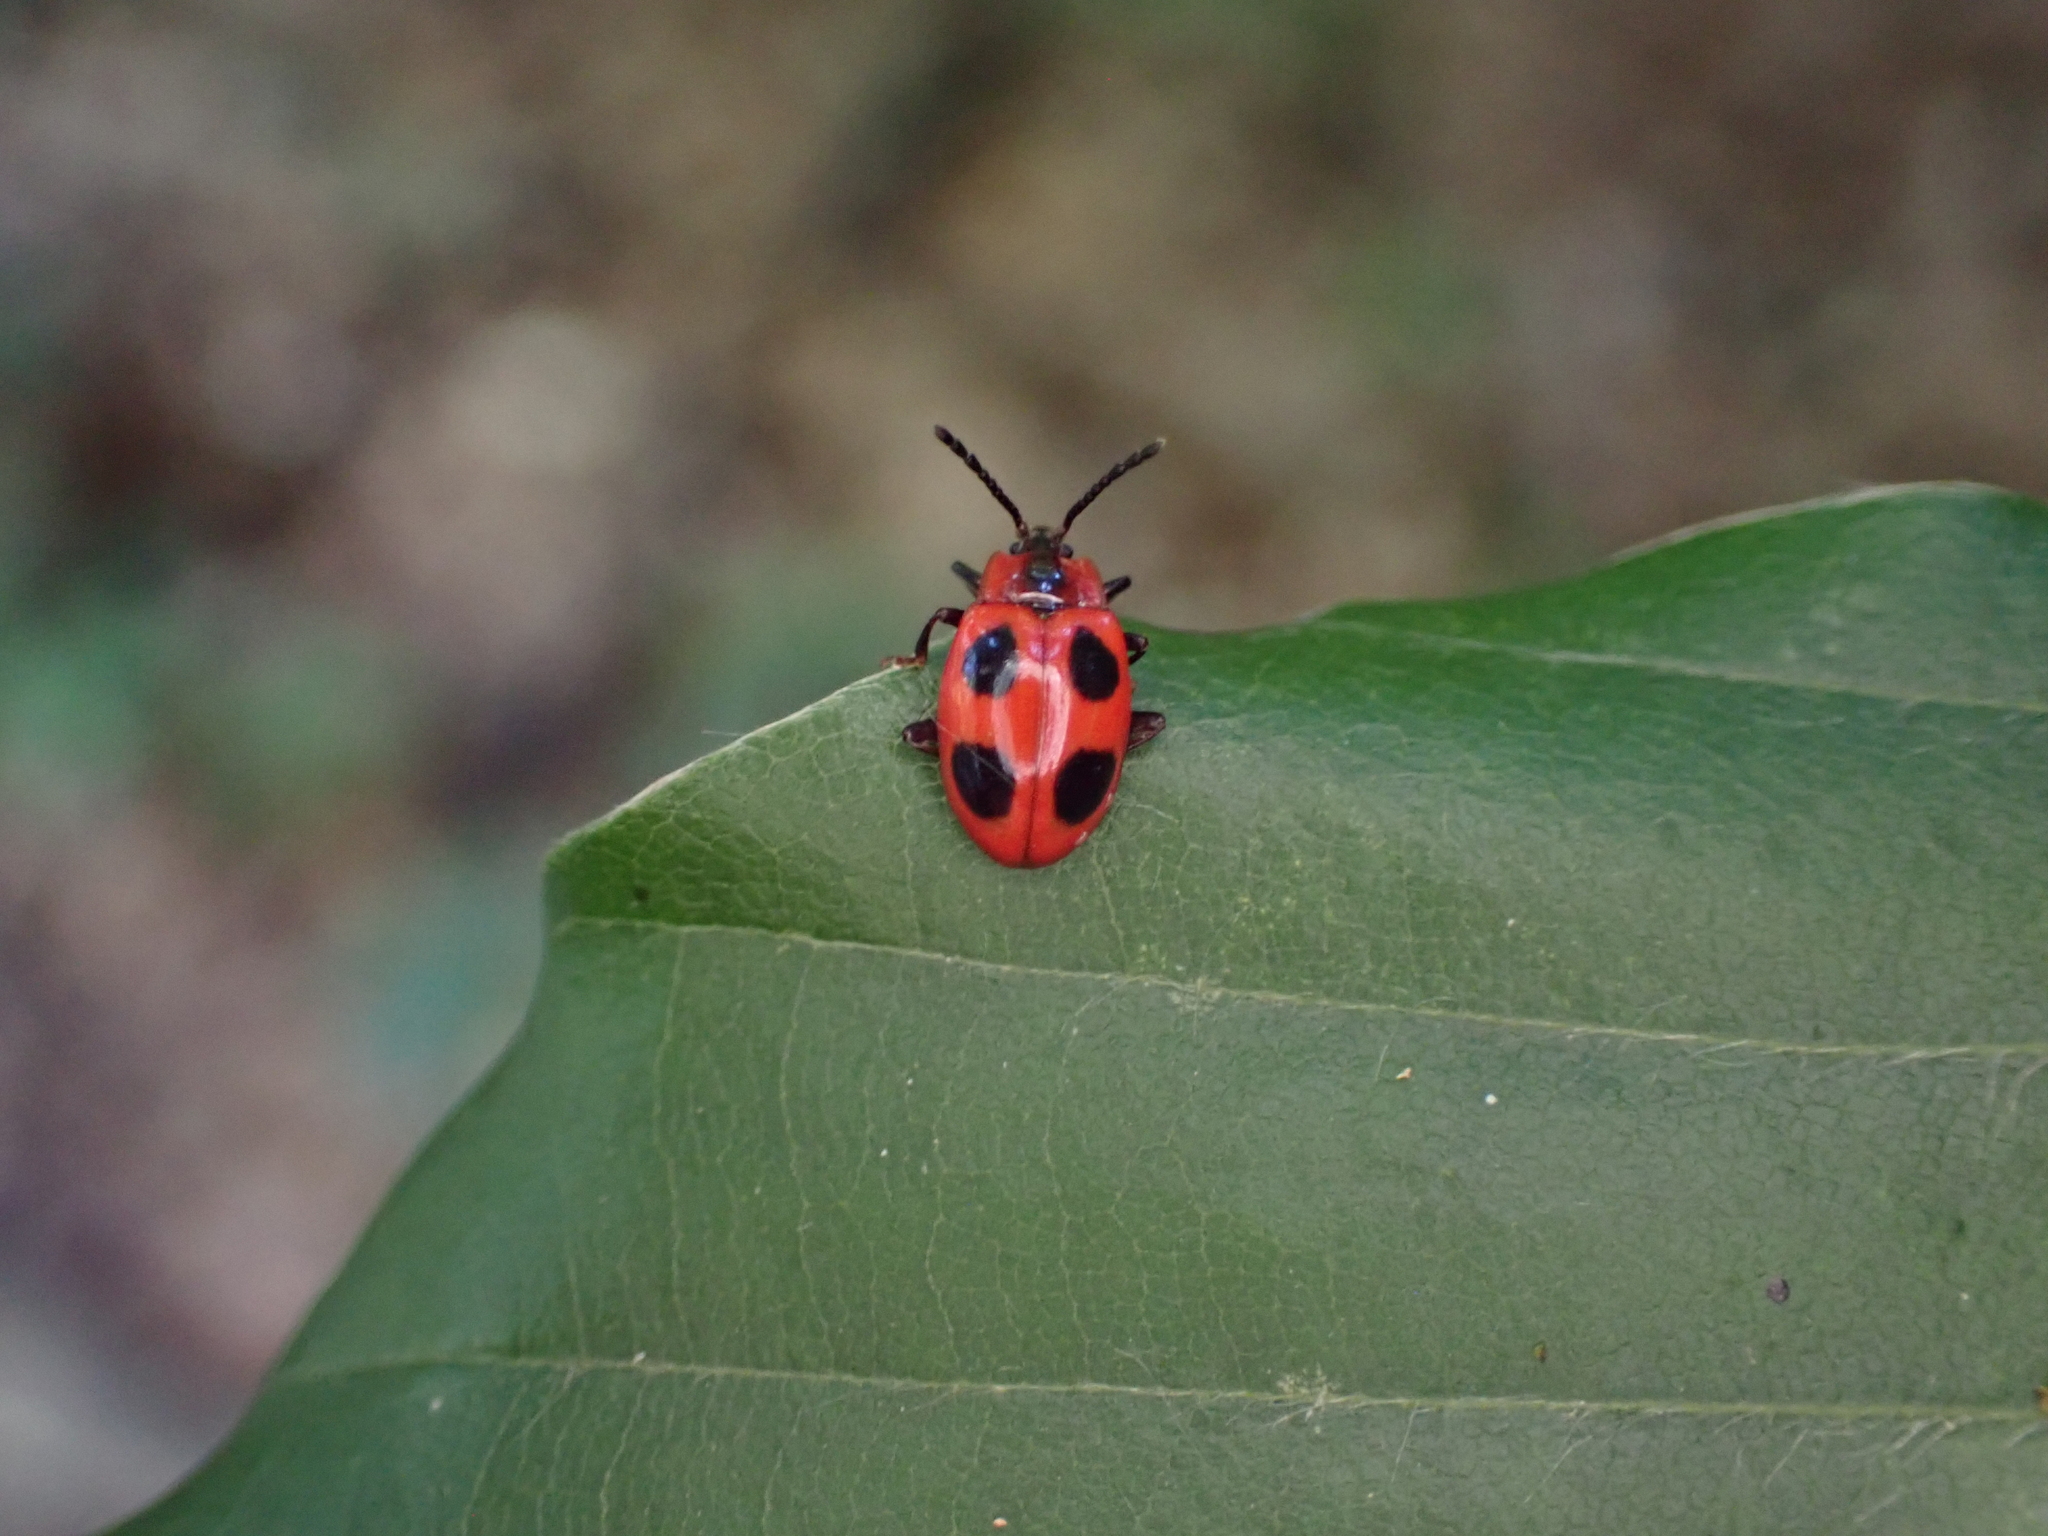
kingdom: Animalia
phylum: Arthropoda
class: Insecta
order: Coleoptera
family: Endomychidae
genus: Endomychus
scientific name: Endomychus coccineus
